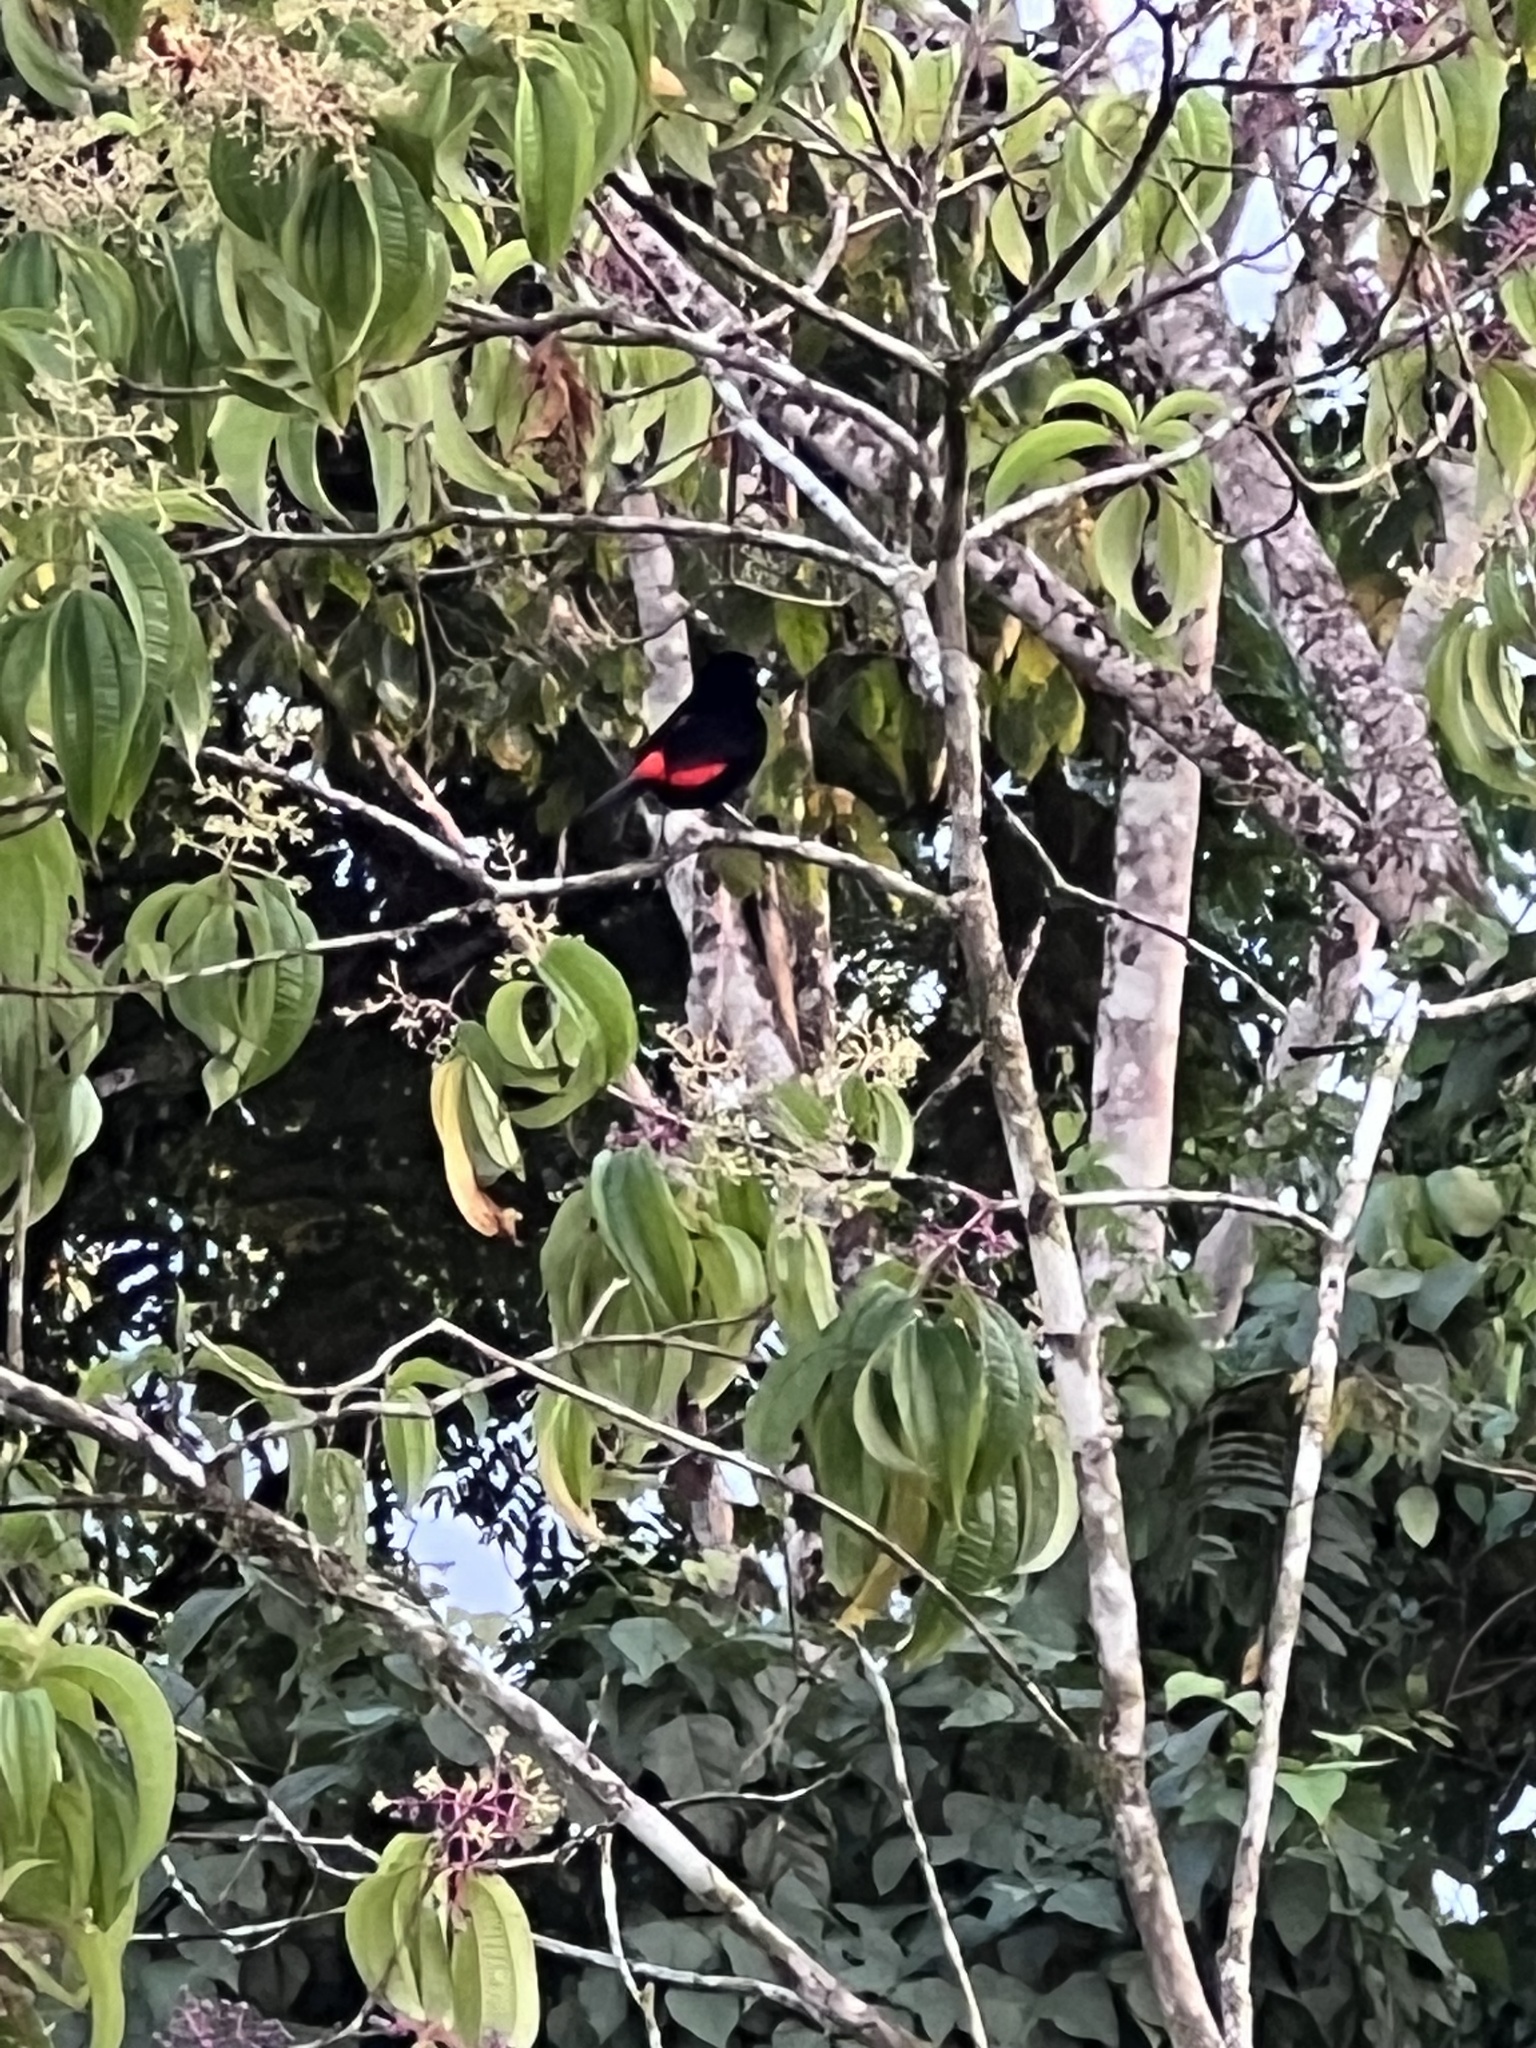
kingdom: Animalia
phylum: Chordata
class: Aves
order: Passeriformes
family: Thraupidae
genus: Ramphocelus
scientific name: Ramphocelus passerinii
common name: Passerini's tanager
